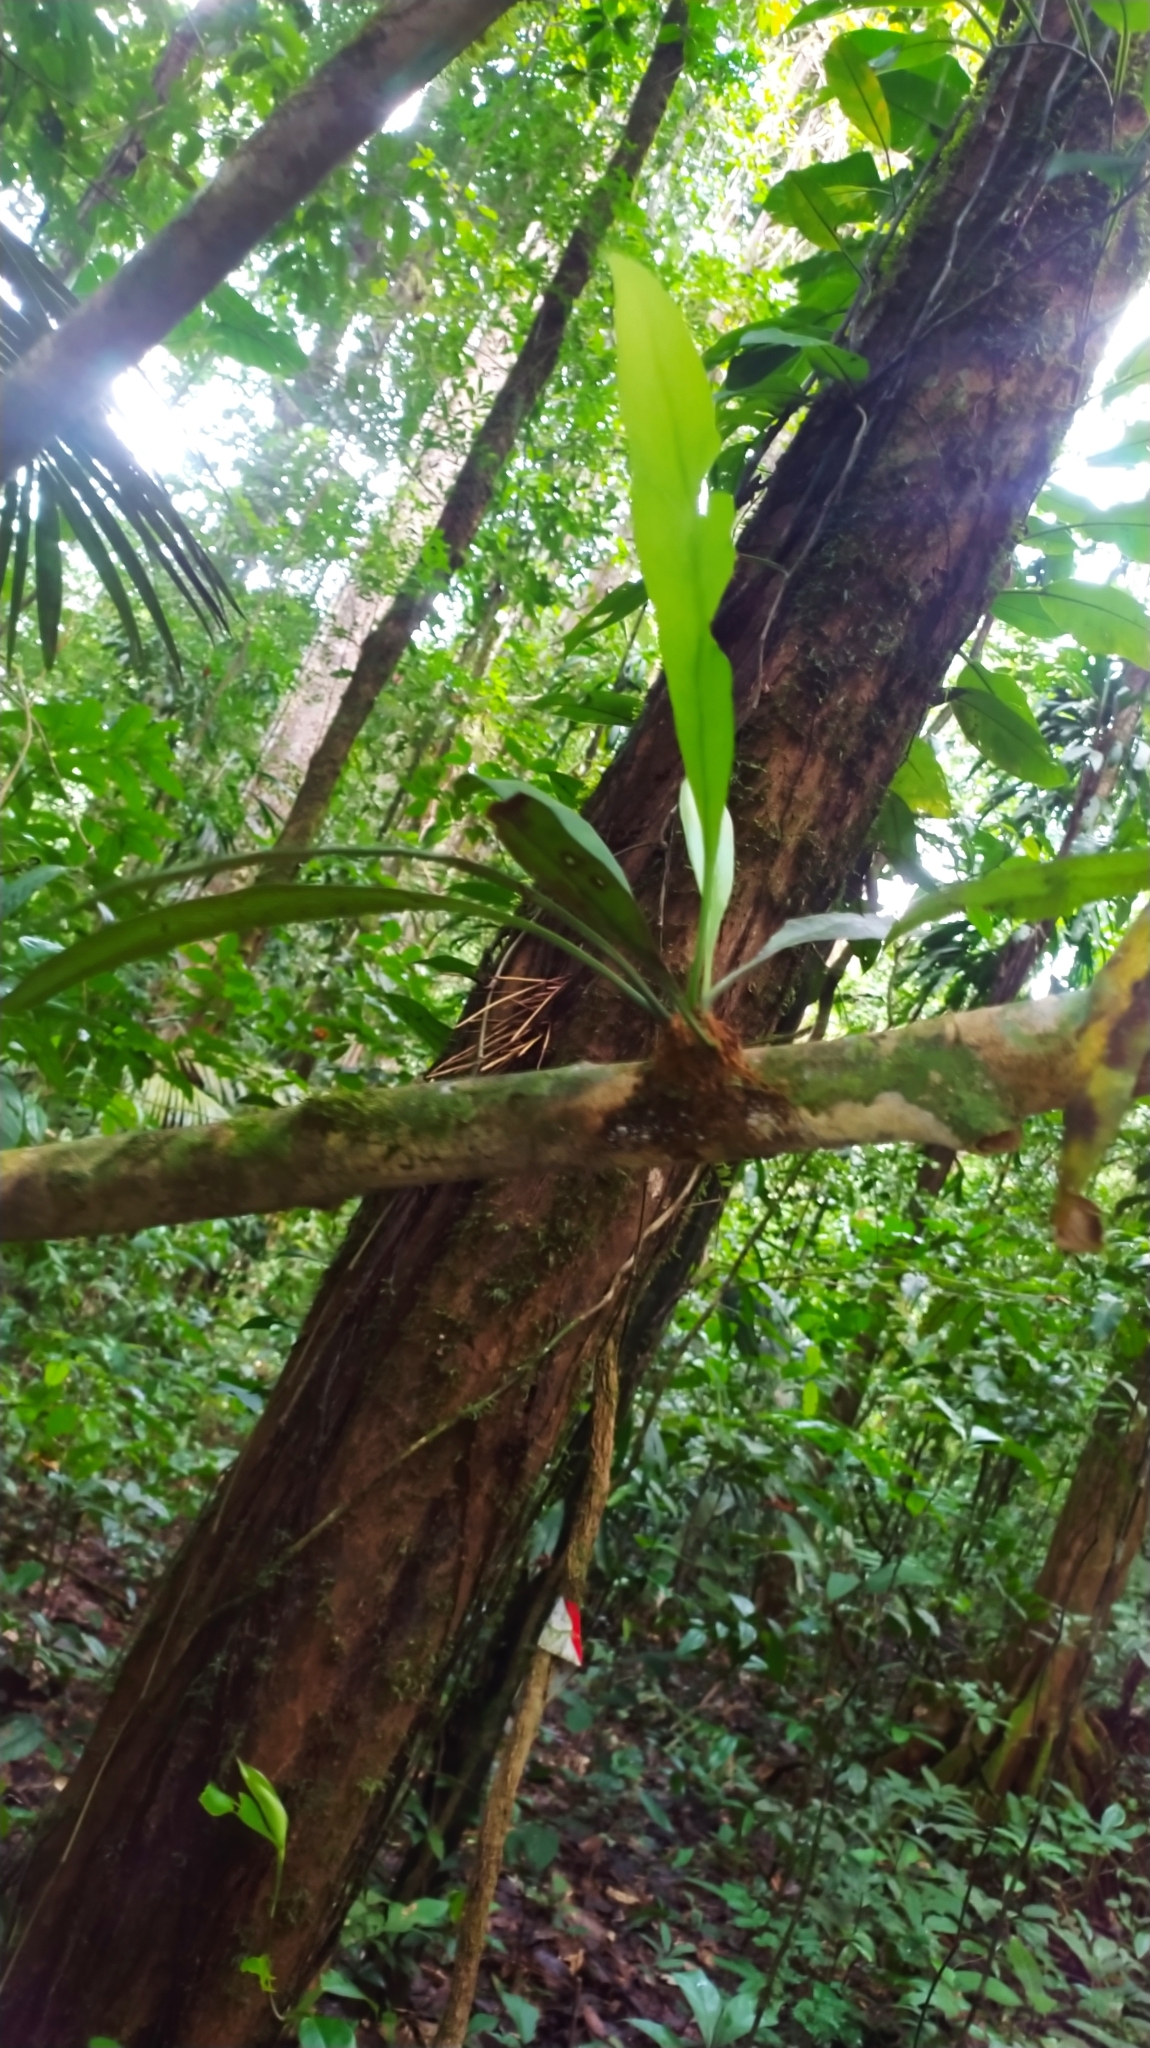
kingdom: Plantae
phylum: Tracheophyta
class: Polypodiopsida
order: Polypodiales
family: Pteridaceae
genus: Polytaenium
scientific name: Polytaenium guayanense
